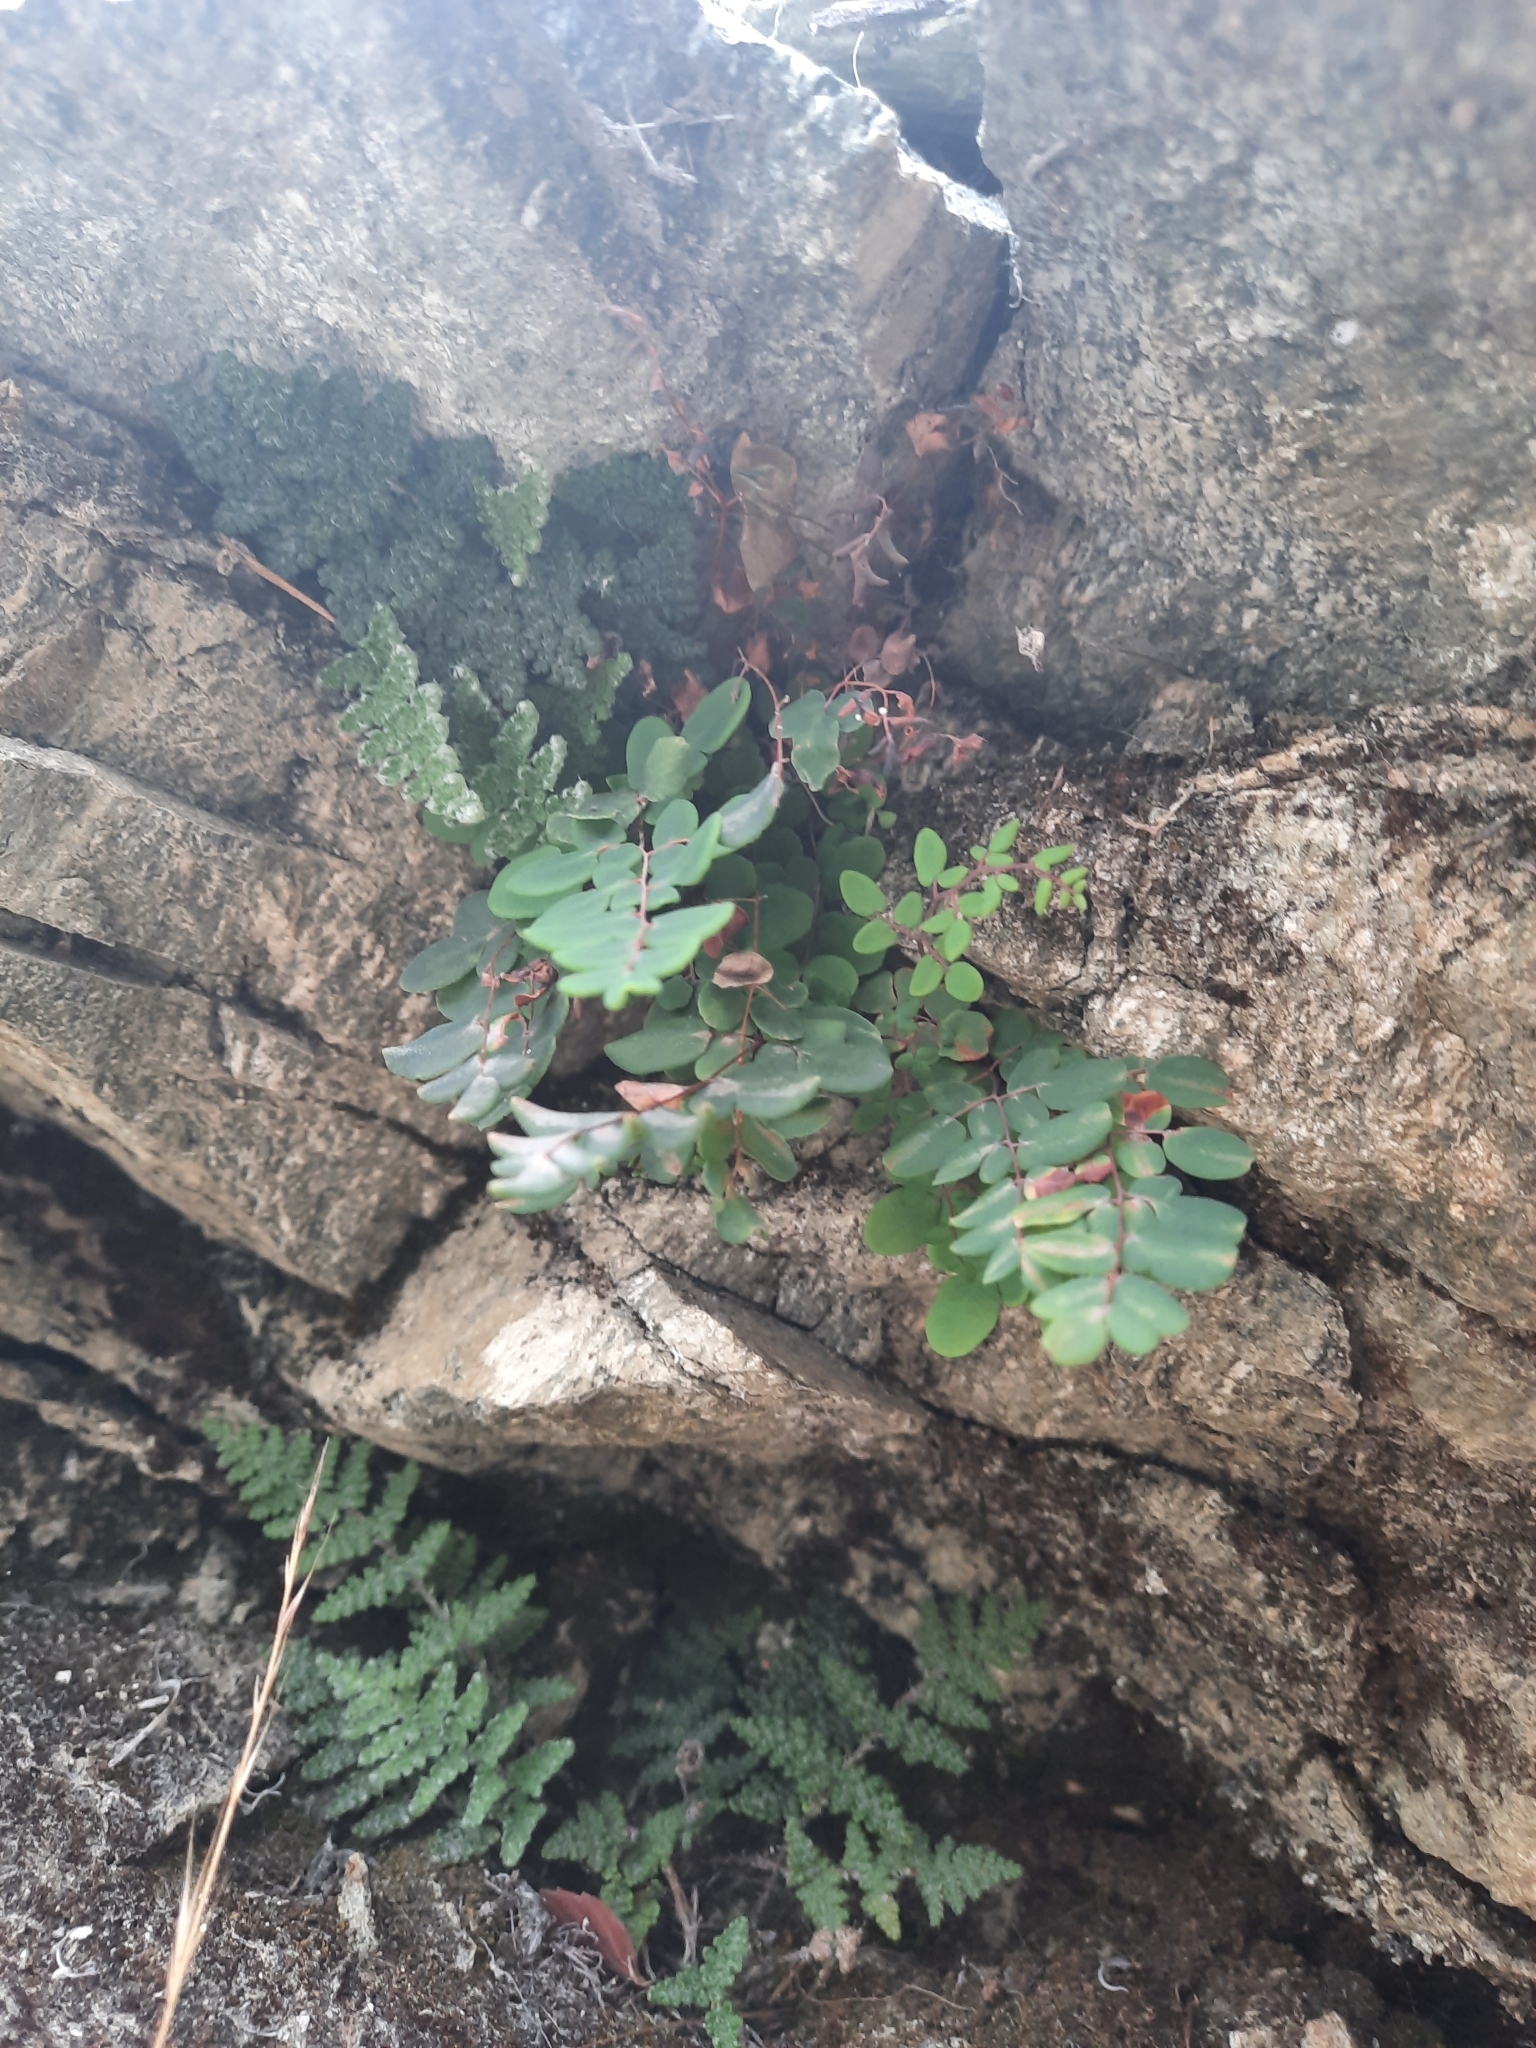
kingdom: Plantae
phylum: Tracheophyta
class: Polypodiopsida
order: Polypodiales
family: Pteridaceae
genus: Pellaea
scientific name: Pellaea andromedifolia
